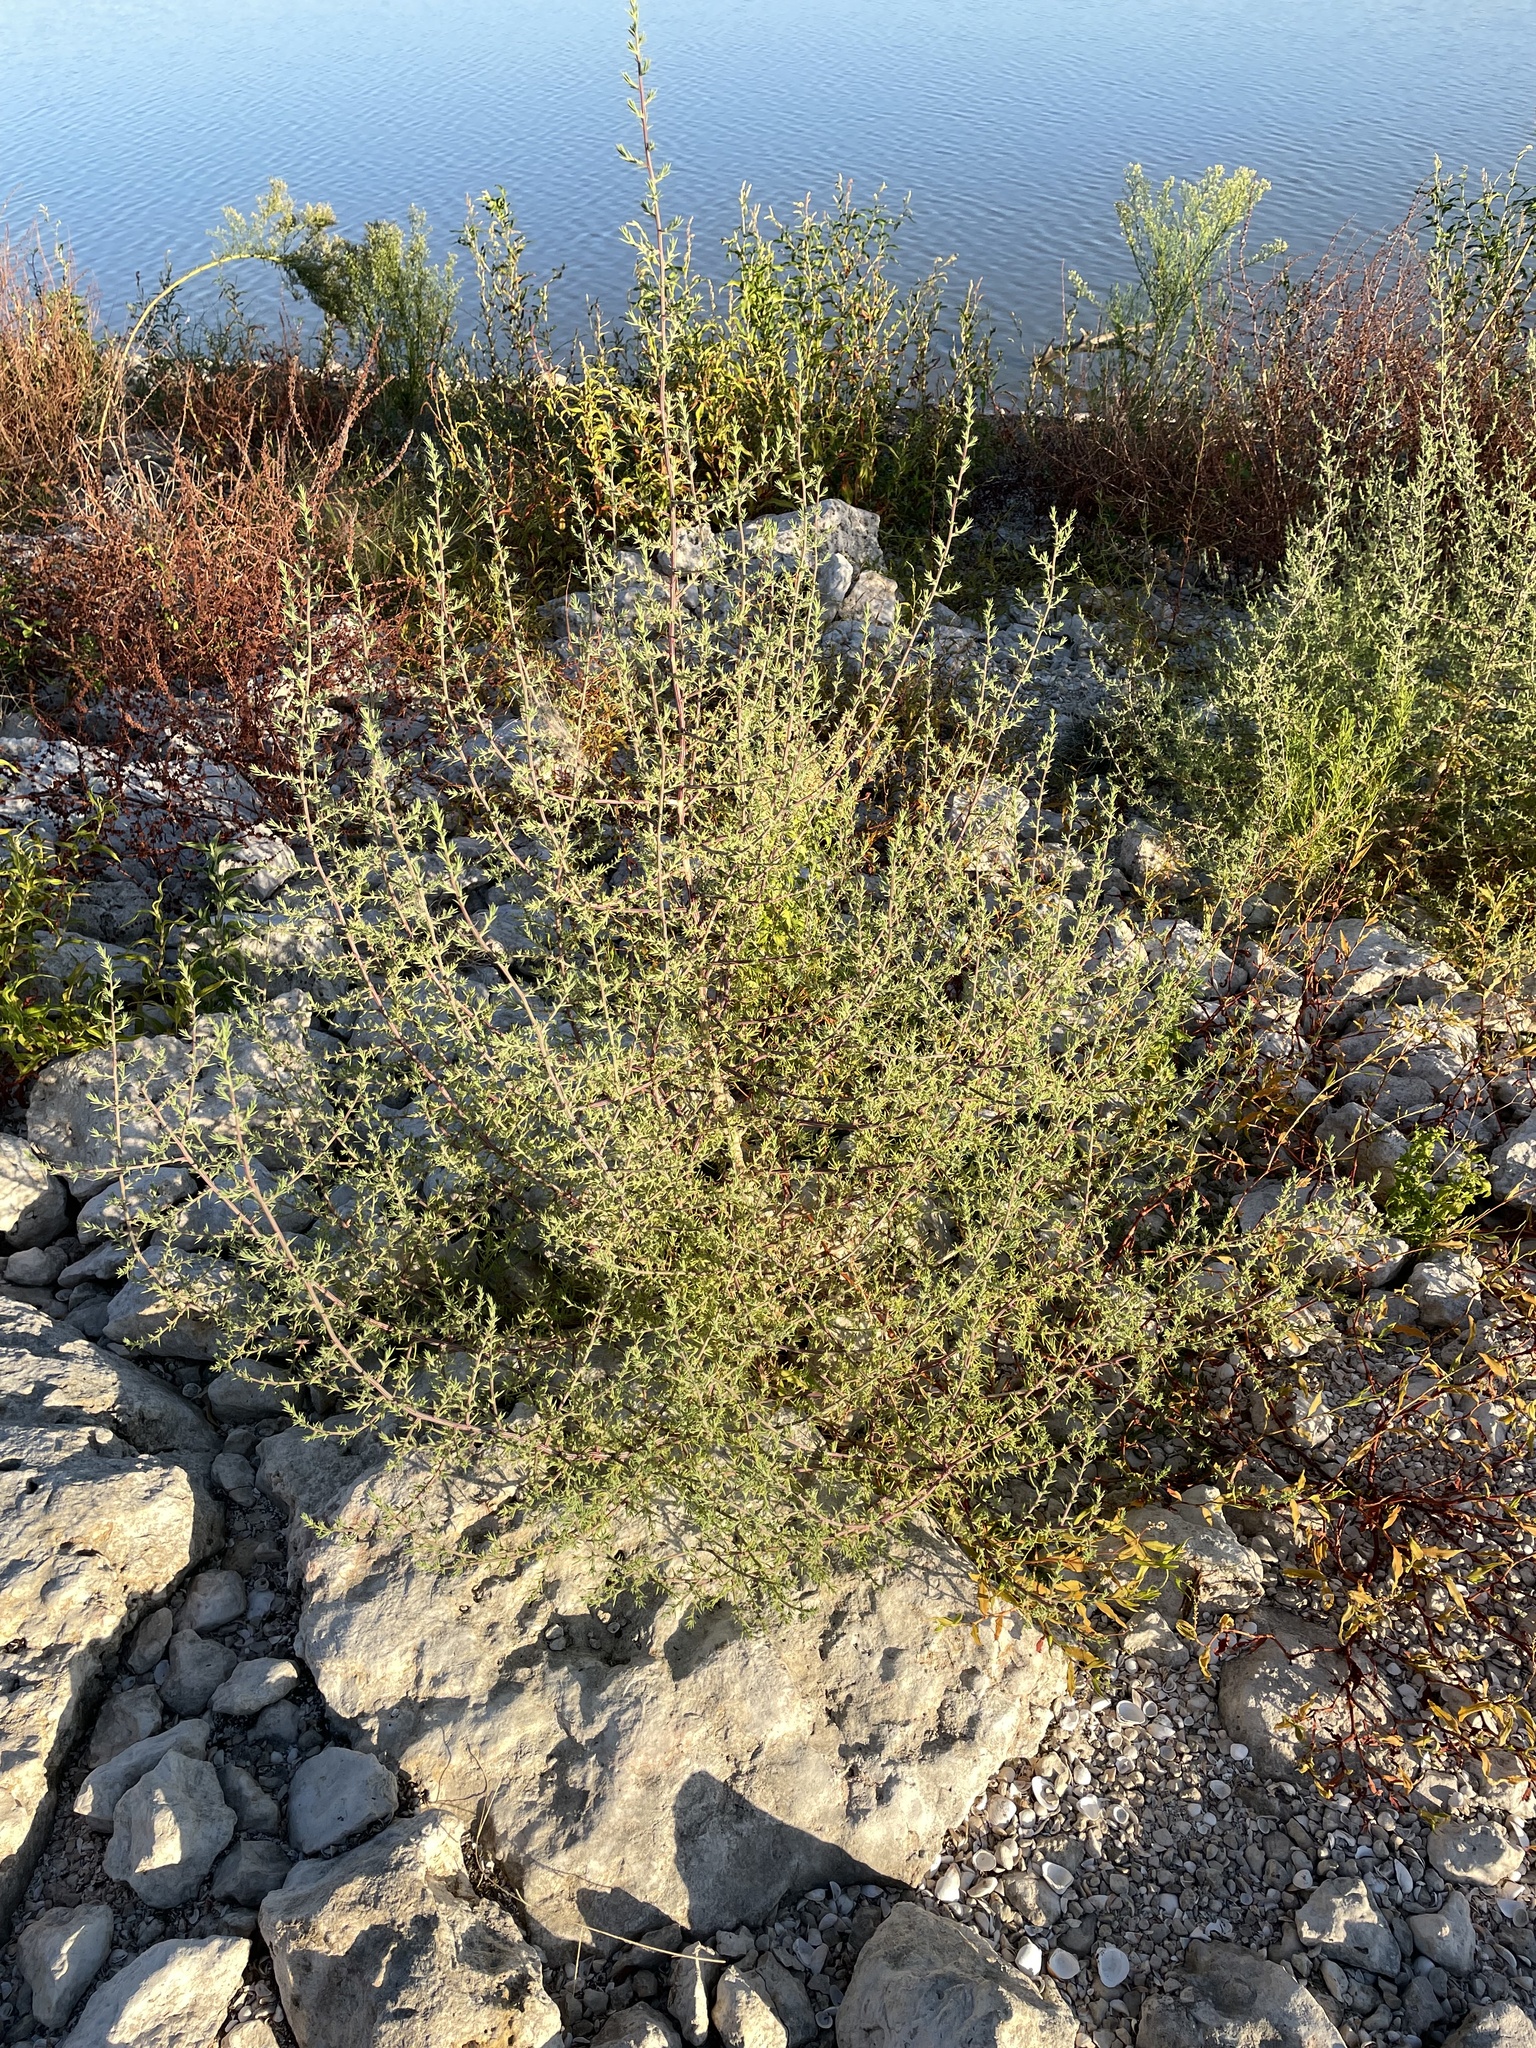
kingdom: Plantae
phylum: Tracheophyta
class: Magnoliopsida
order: Caryophyllales
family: Amaranthaceae
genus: Salsola
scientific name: Salsola tragus
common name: Prickly russian thistle
